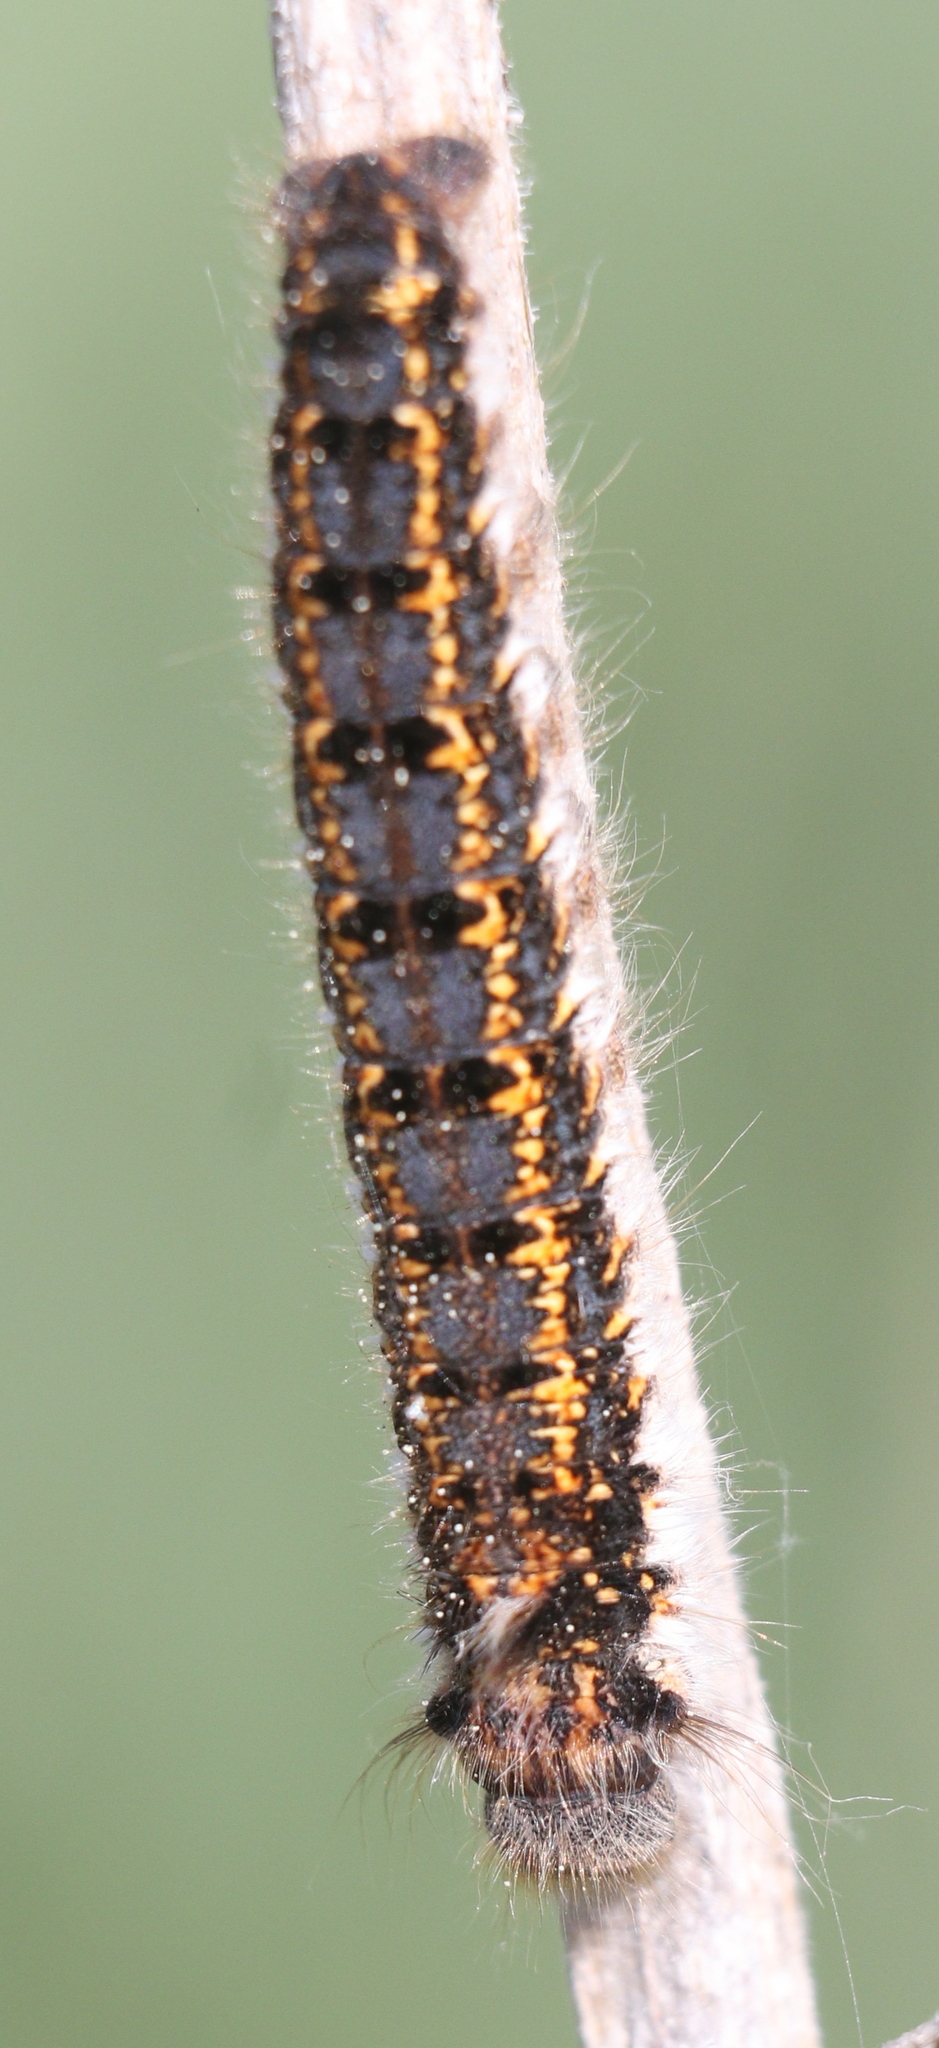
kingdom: Animalia
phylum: Arthropoda
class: Insecta
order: Lepidoptera
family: Lasiocampidae
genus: Euthrix
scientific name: Euthrix potatoria
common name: Drinker
